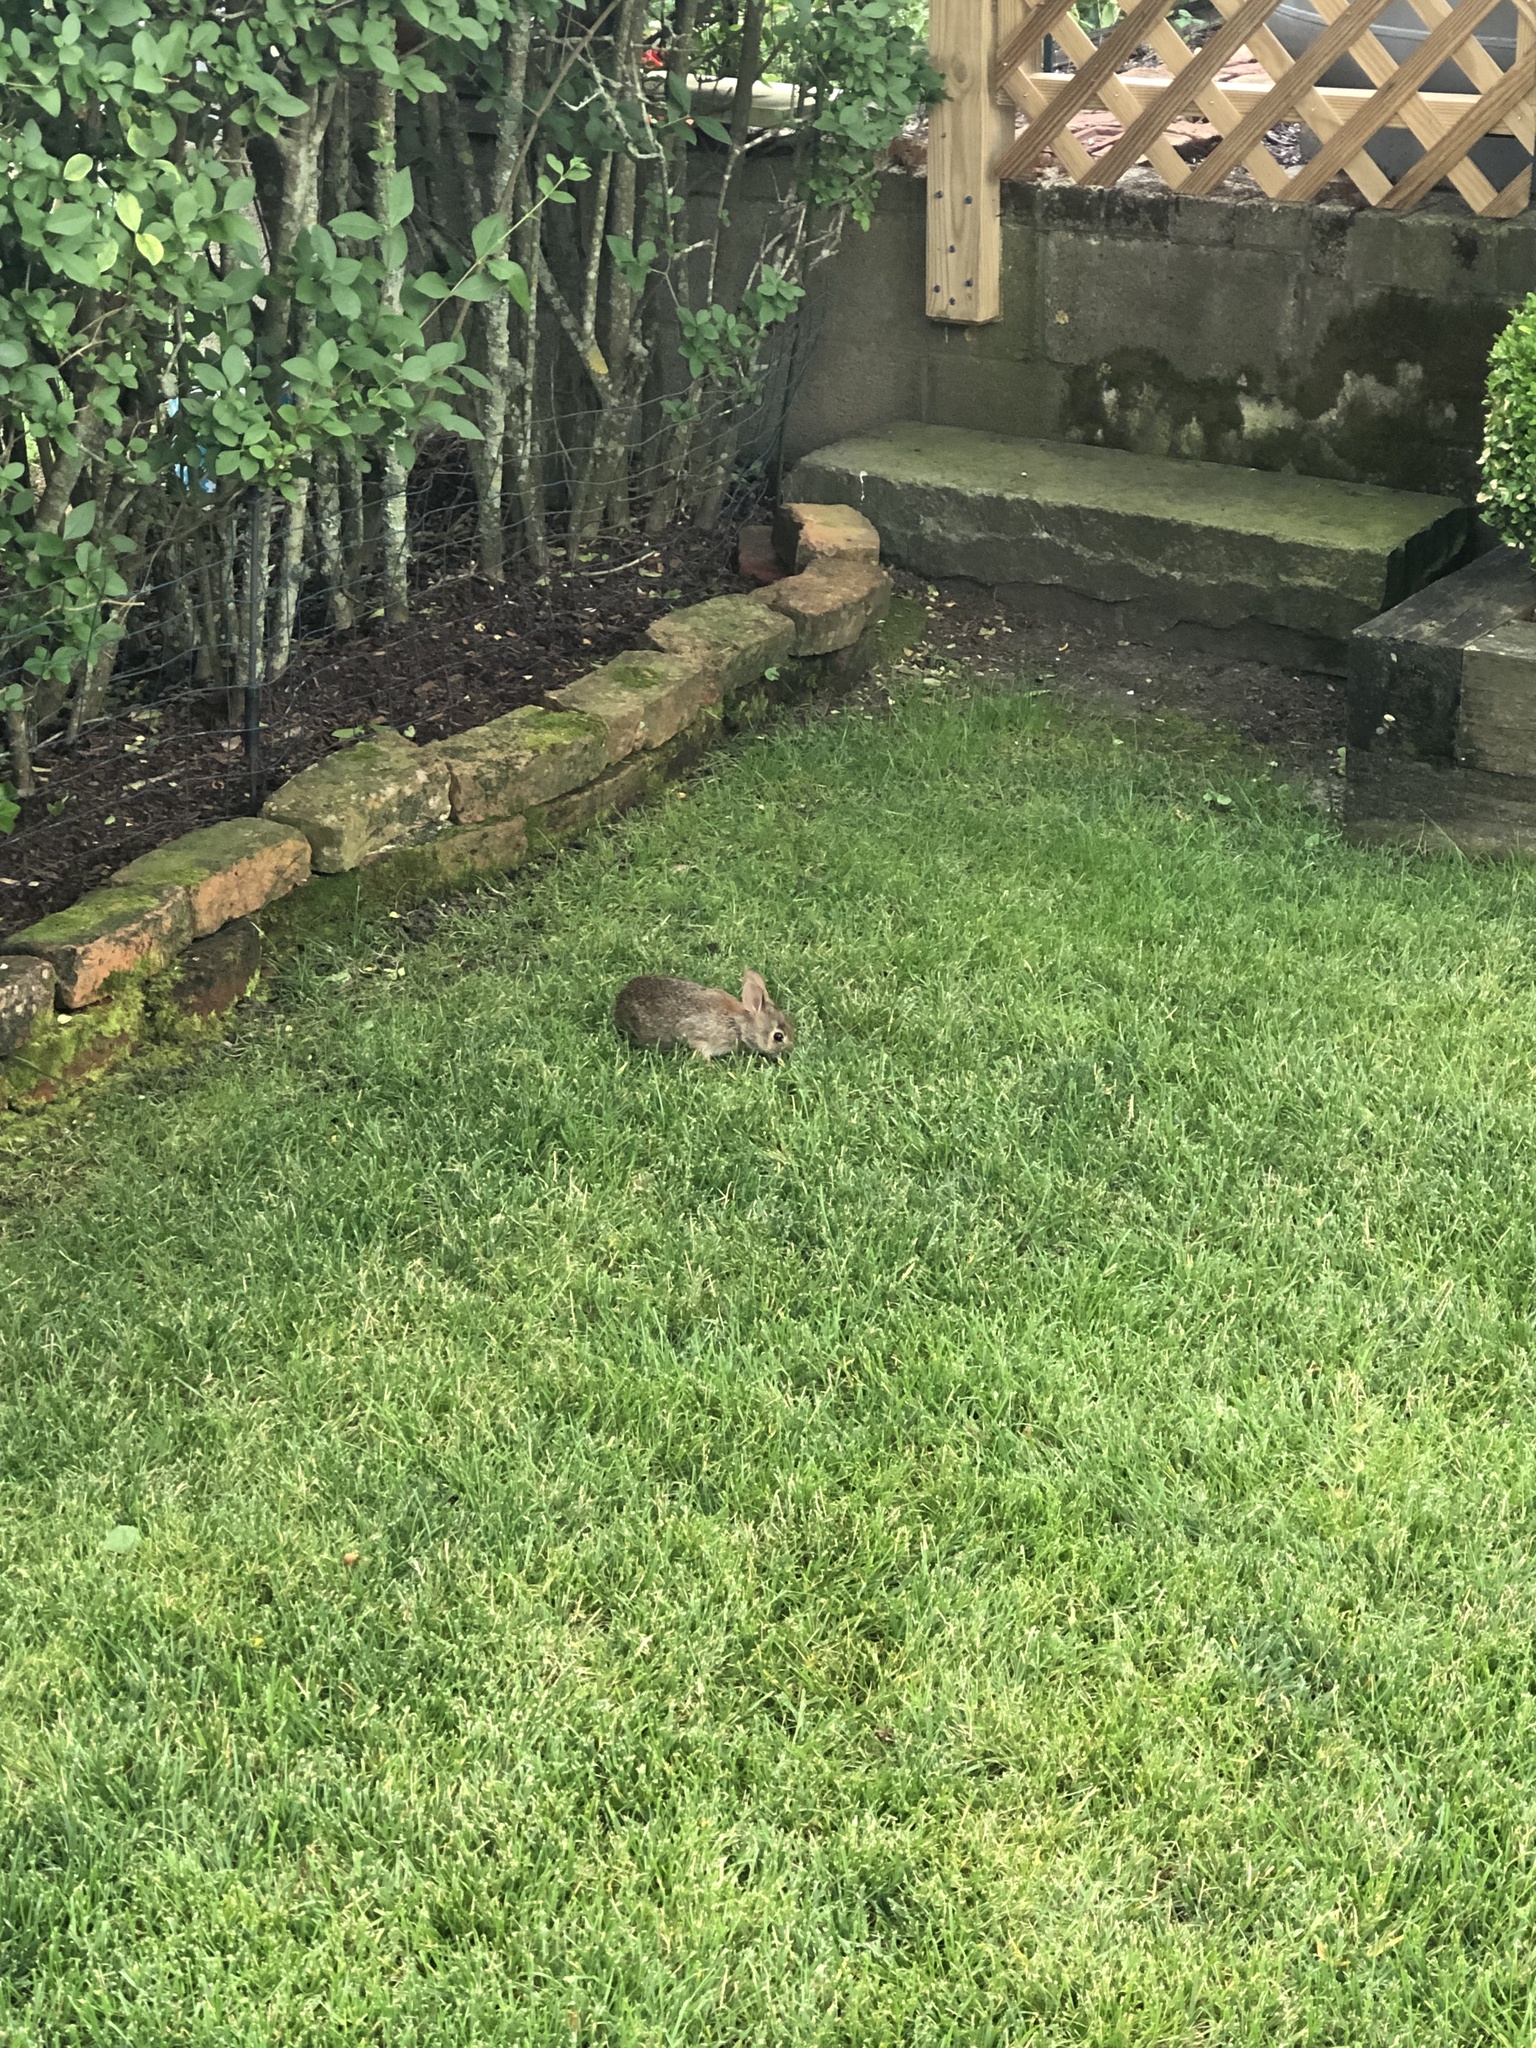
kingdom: Animalia
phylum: Chordata
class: Mammalia
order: Lagomorpha
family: Leporidae
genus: Sylvilagus
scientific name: Sylvilagus floridanus
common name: Eastern cottontail
